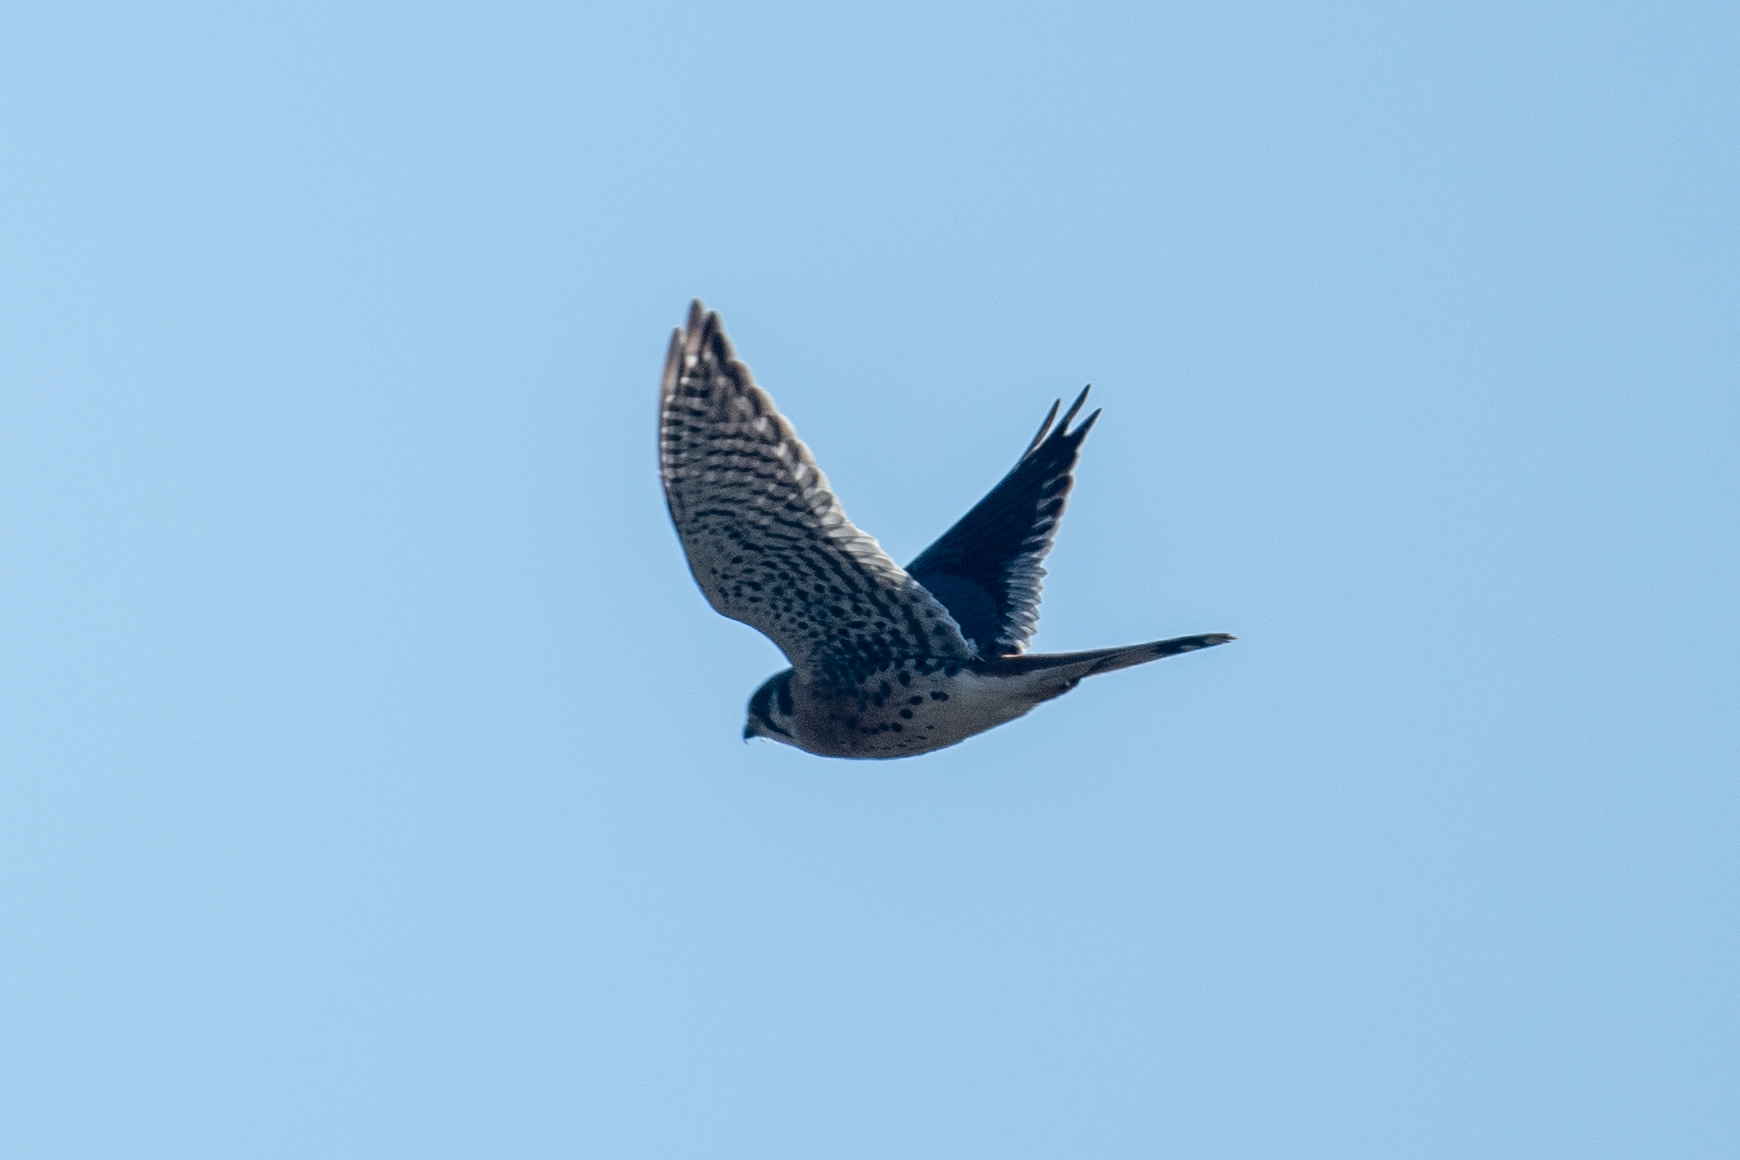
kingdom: Animalia
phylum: Chordata
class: Aves
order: Falconiformes
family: Falconidae
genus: Falco
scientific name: Falco sparverius
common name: American kestrel
